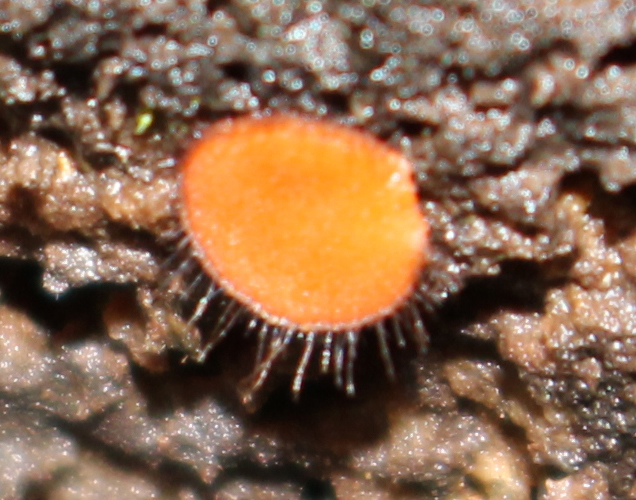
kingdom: Fungi
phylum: Ascomycota
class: Pezizomycetes
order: Pezizales
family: Pyronemataceae
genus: Scutellinia
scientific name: Scutellinia scutellata
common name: Common eyelash
